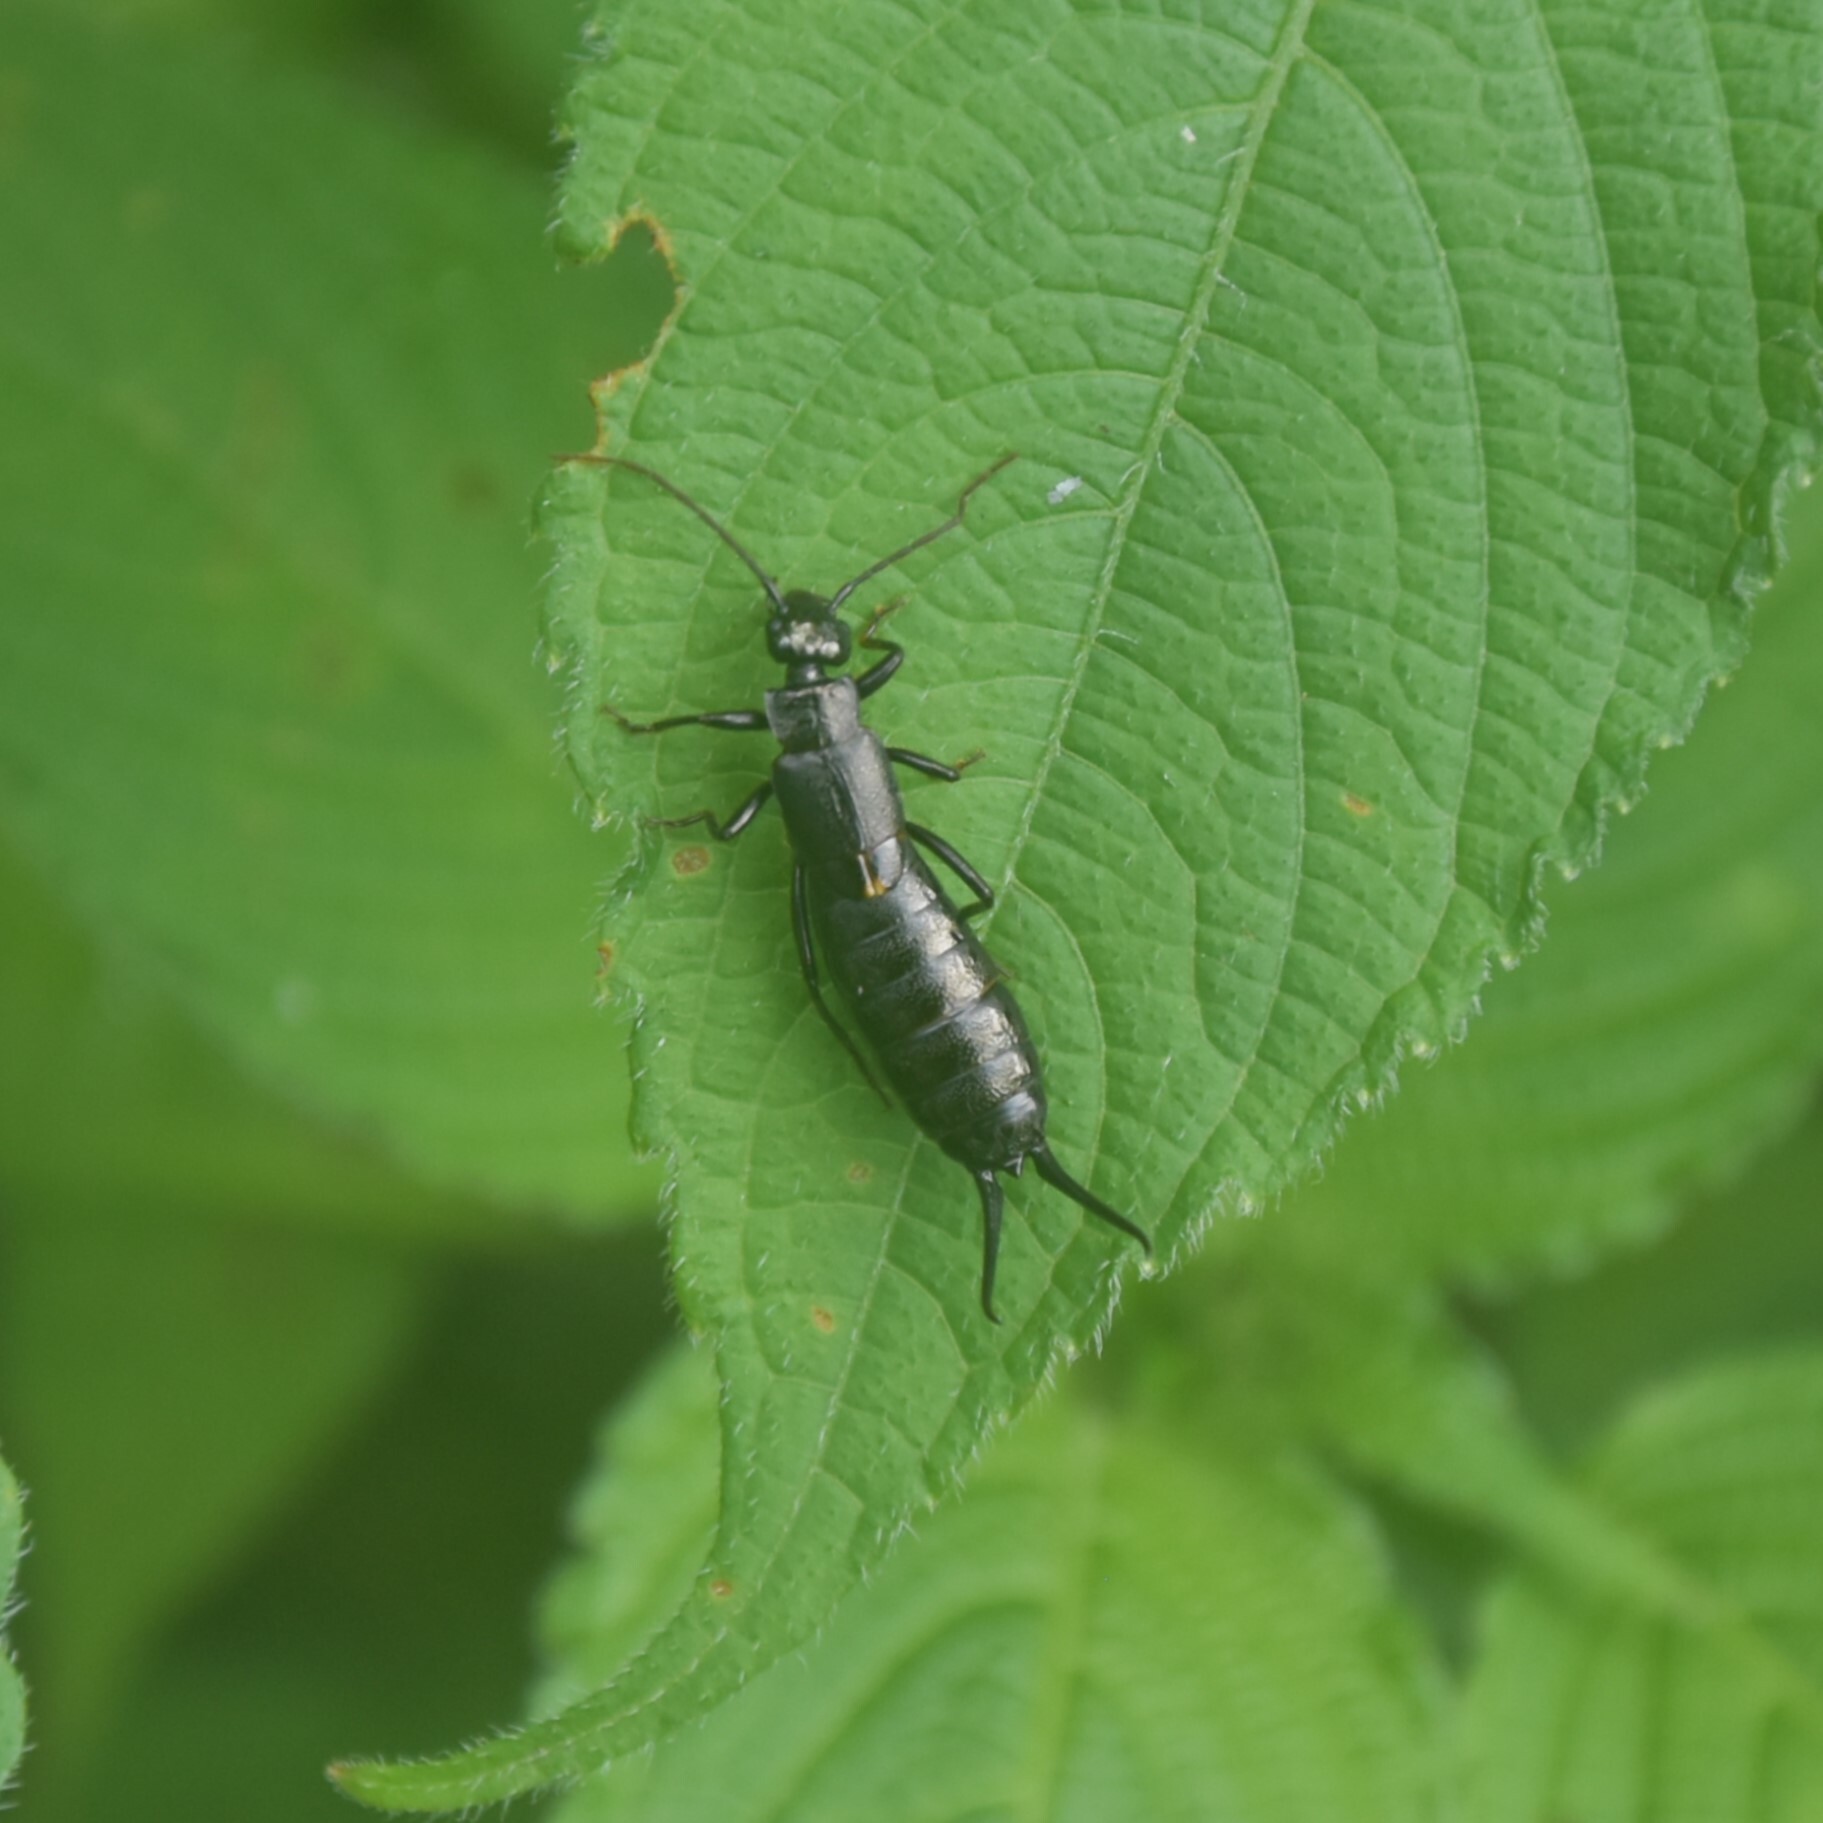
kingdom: Animalia
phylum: Arthropoda
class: Insecta
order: Dermaptera
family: Forficulidae
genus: Allodahlia
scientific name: Allodahlia macropyga
